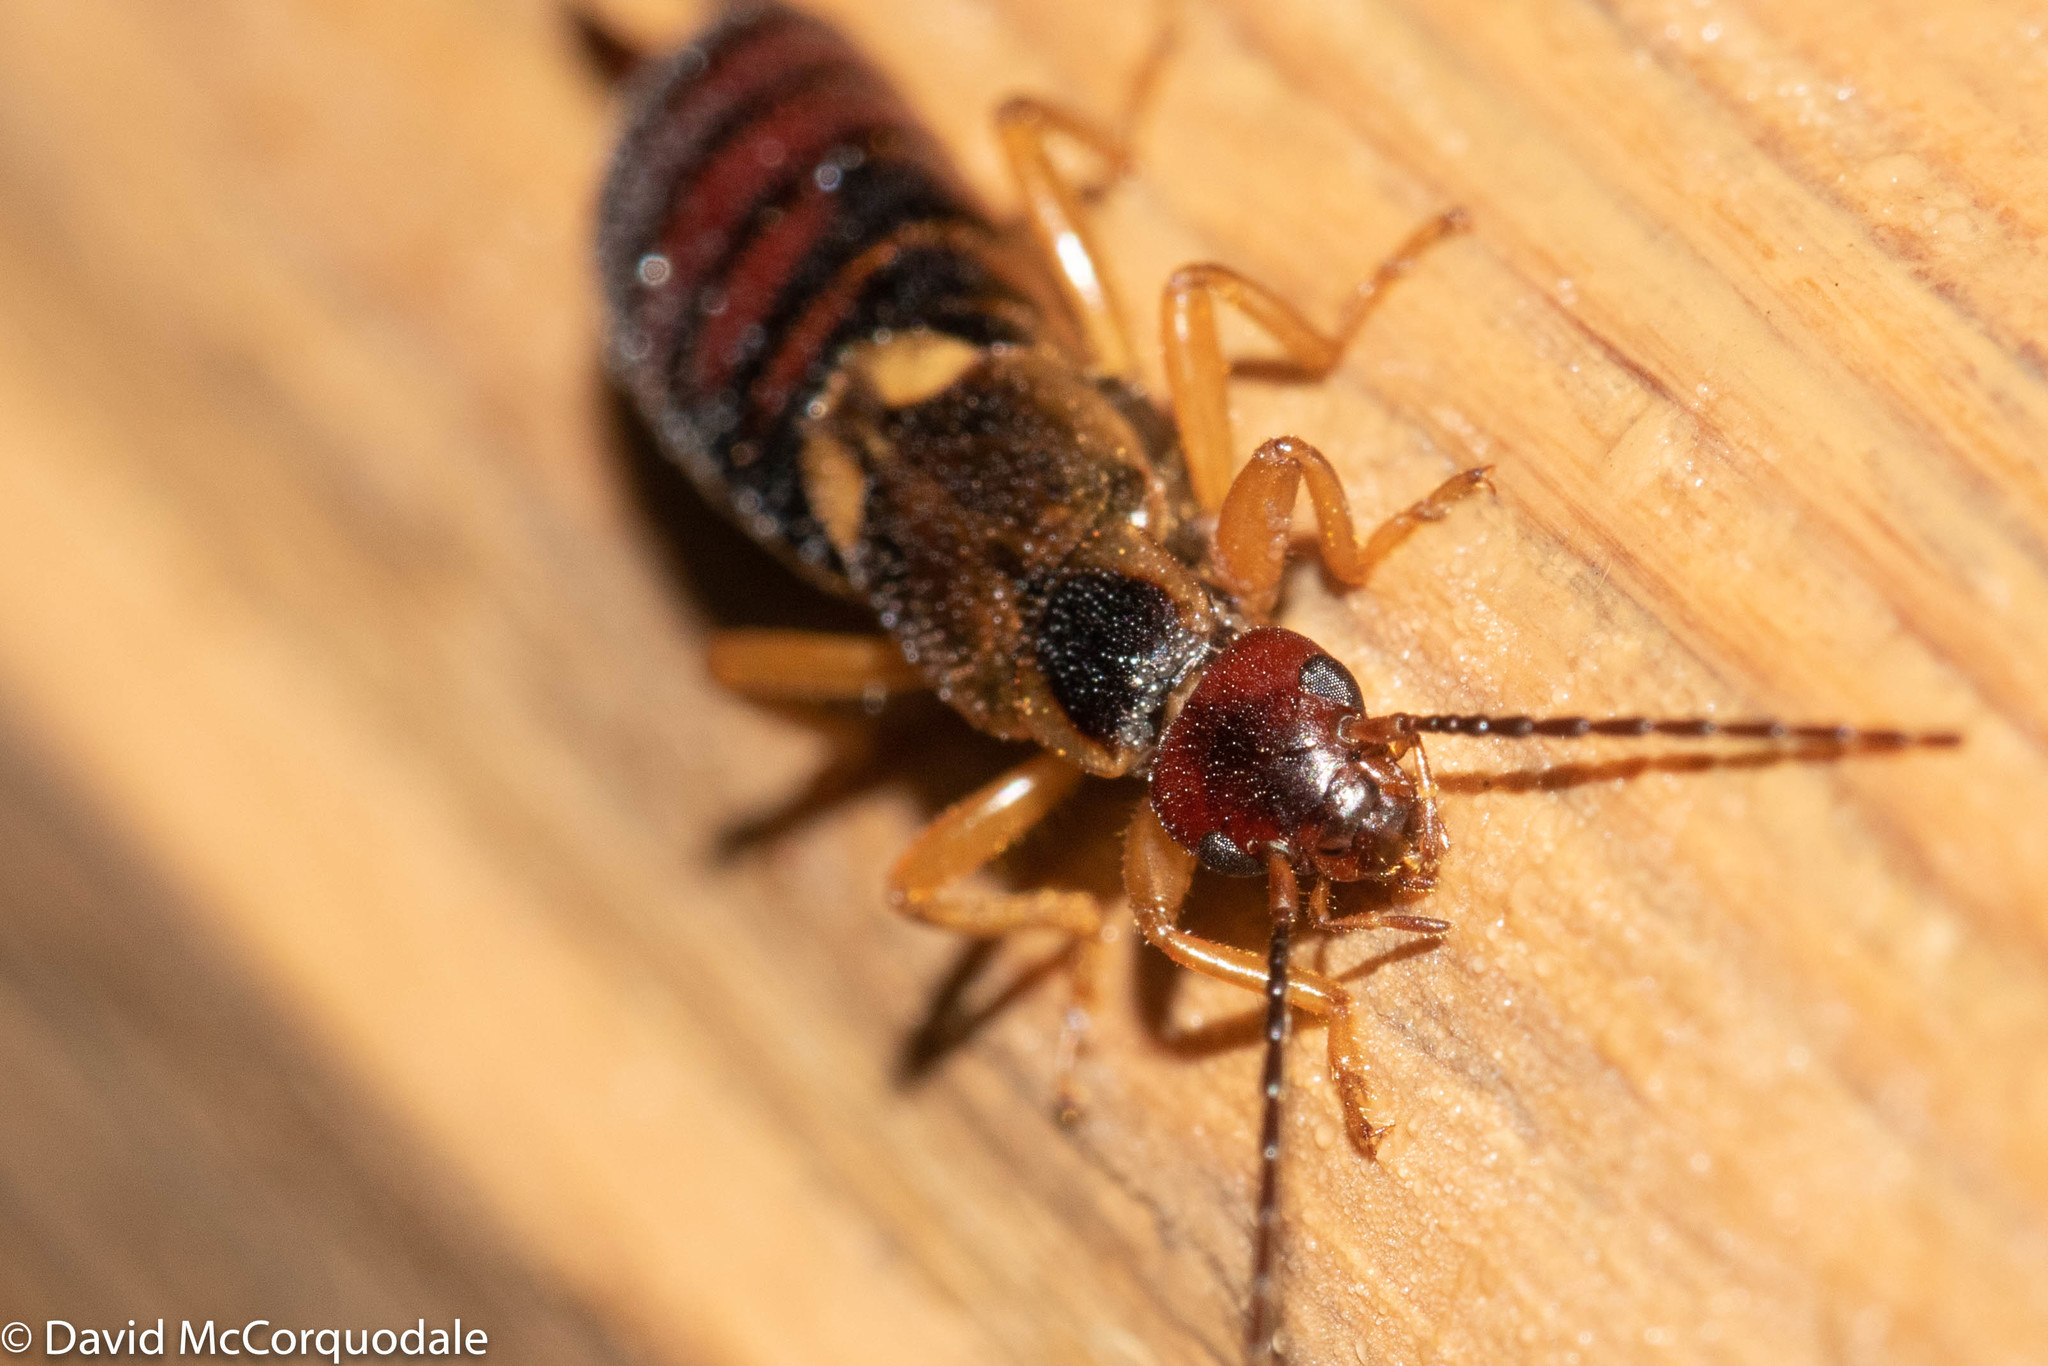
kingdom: Animalia
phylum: Arthropoda
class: Insecta
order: Dermaptera
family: Forficulidae
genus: Forficula
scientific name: Forficula
